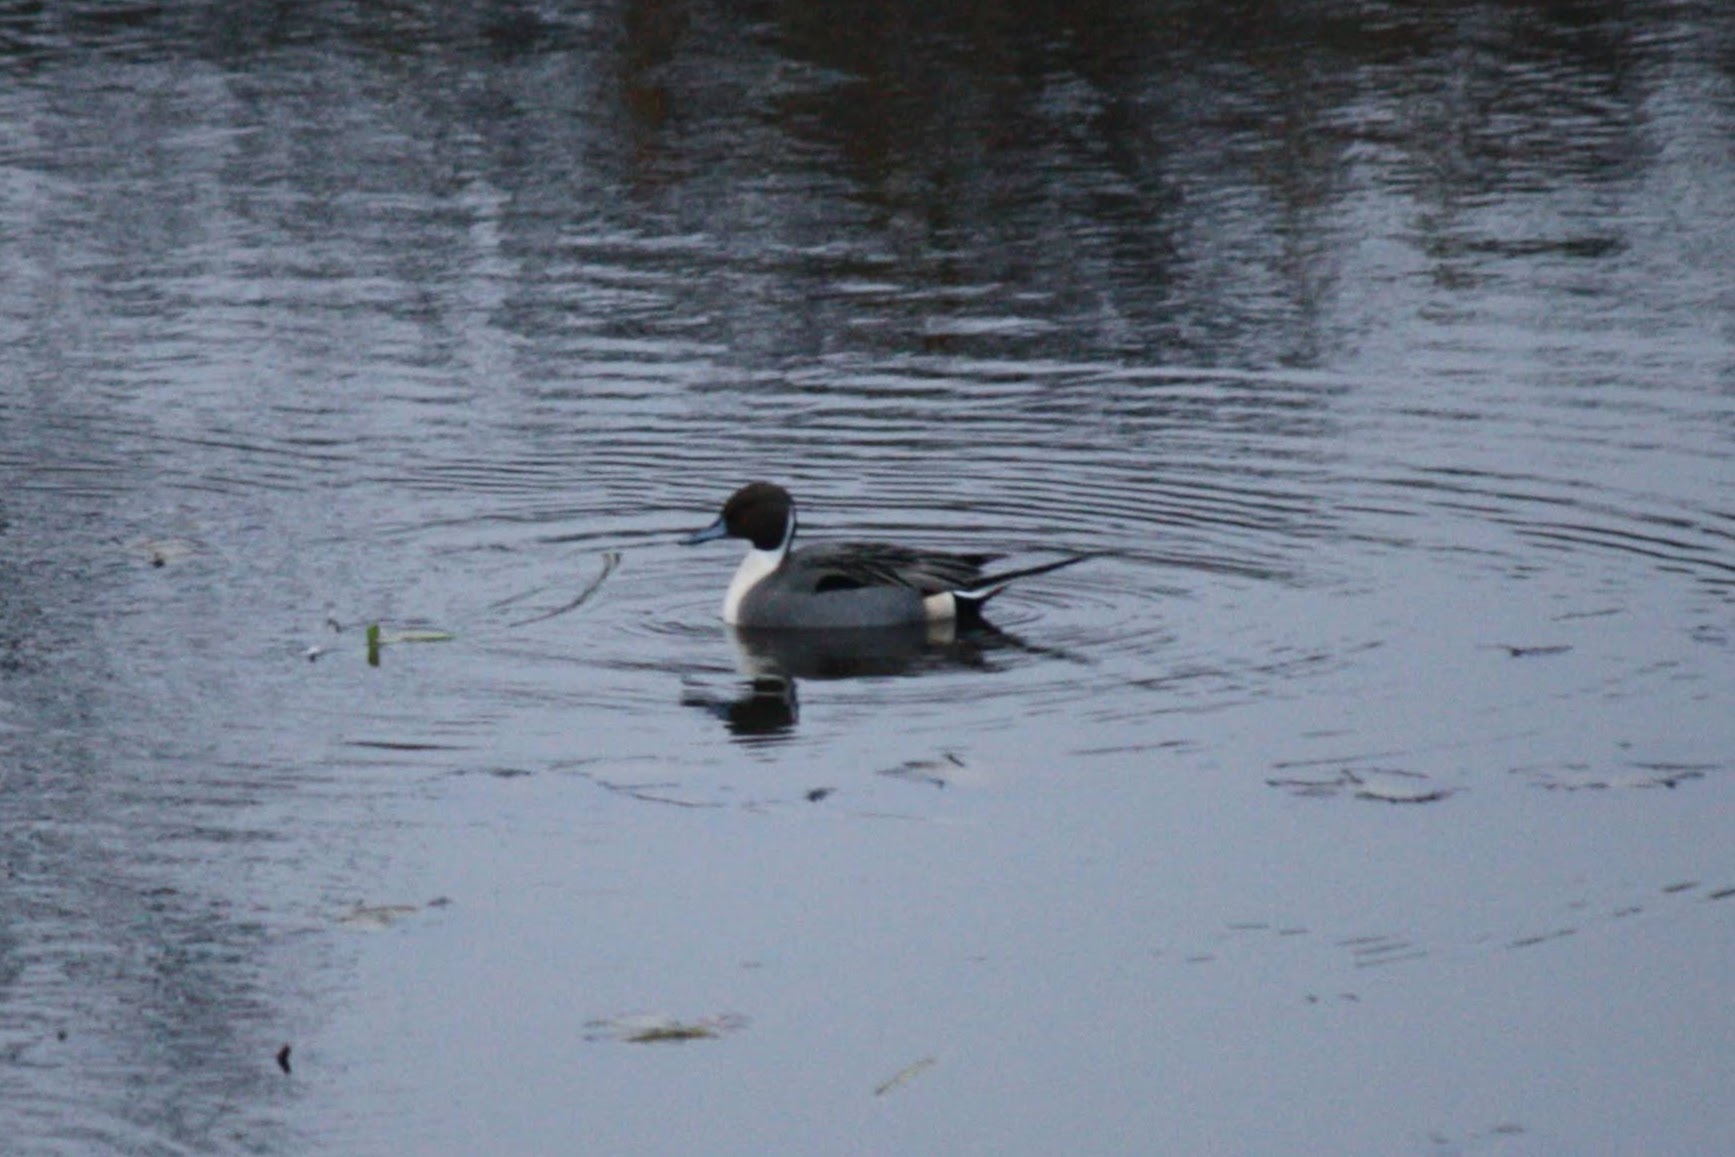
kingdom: Animalia
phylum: Chordata
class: Aves
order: Anseriformes
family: Anatidae
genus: Anas
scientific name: Anas acuta
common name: Northern pintail
